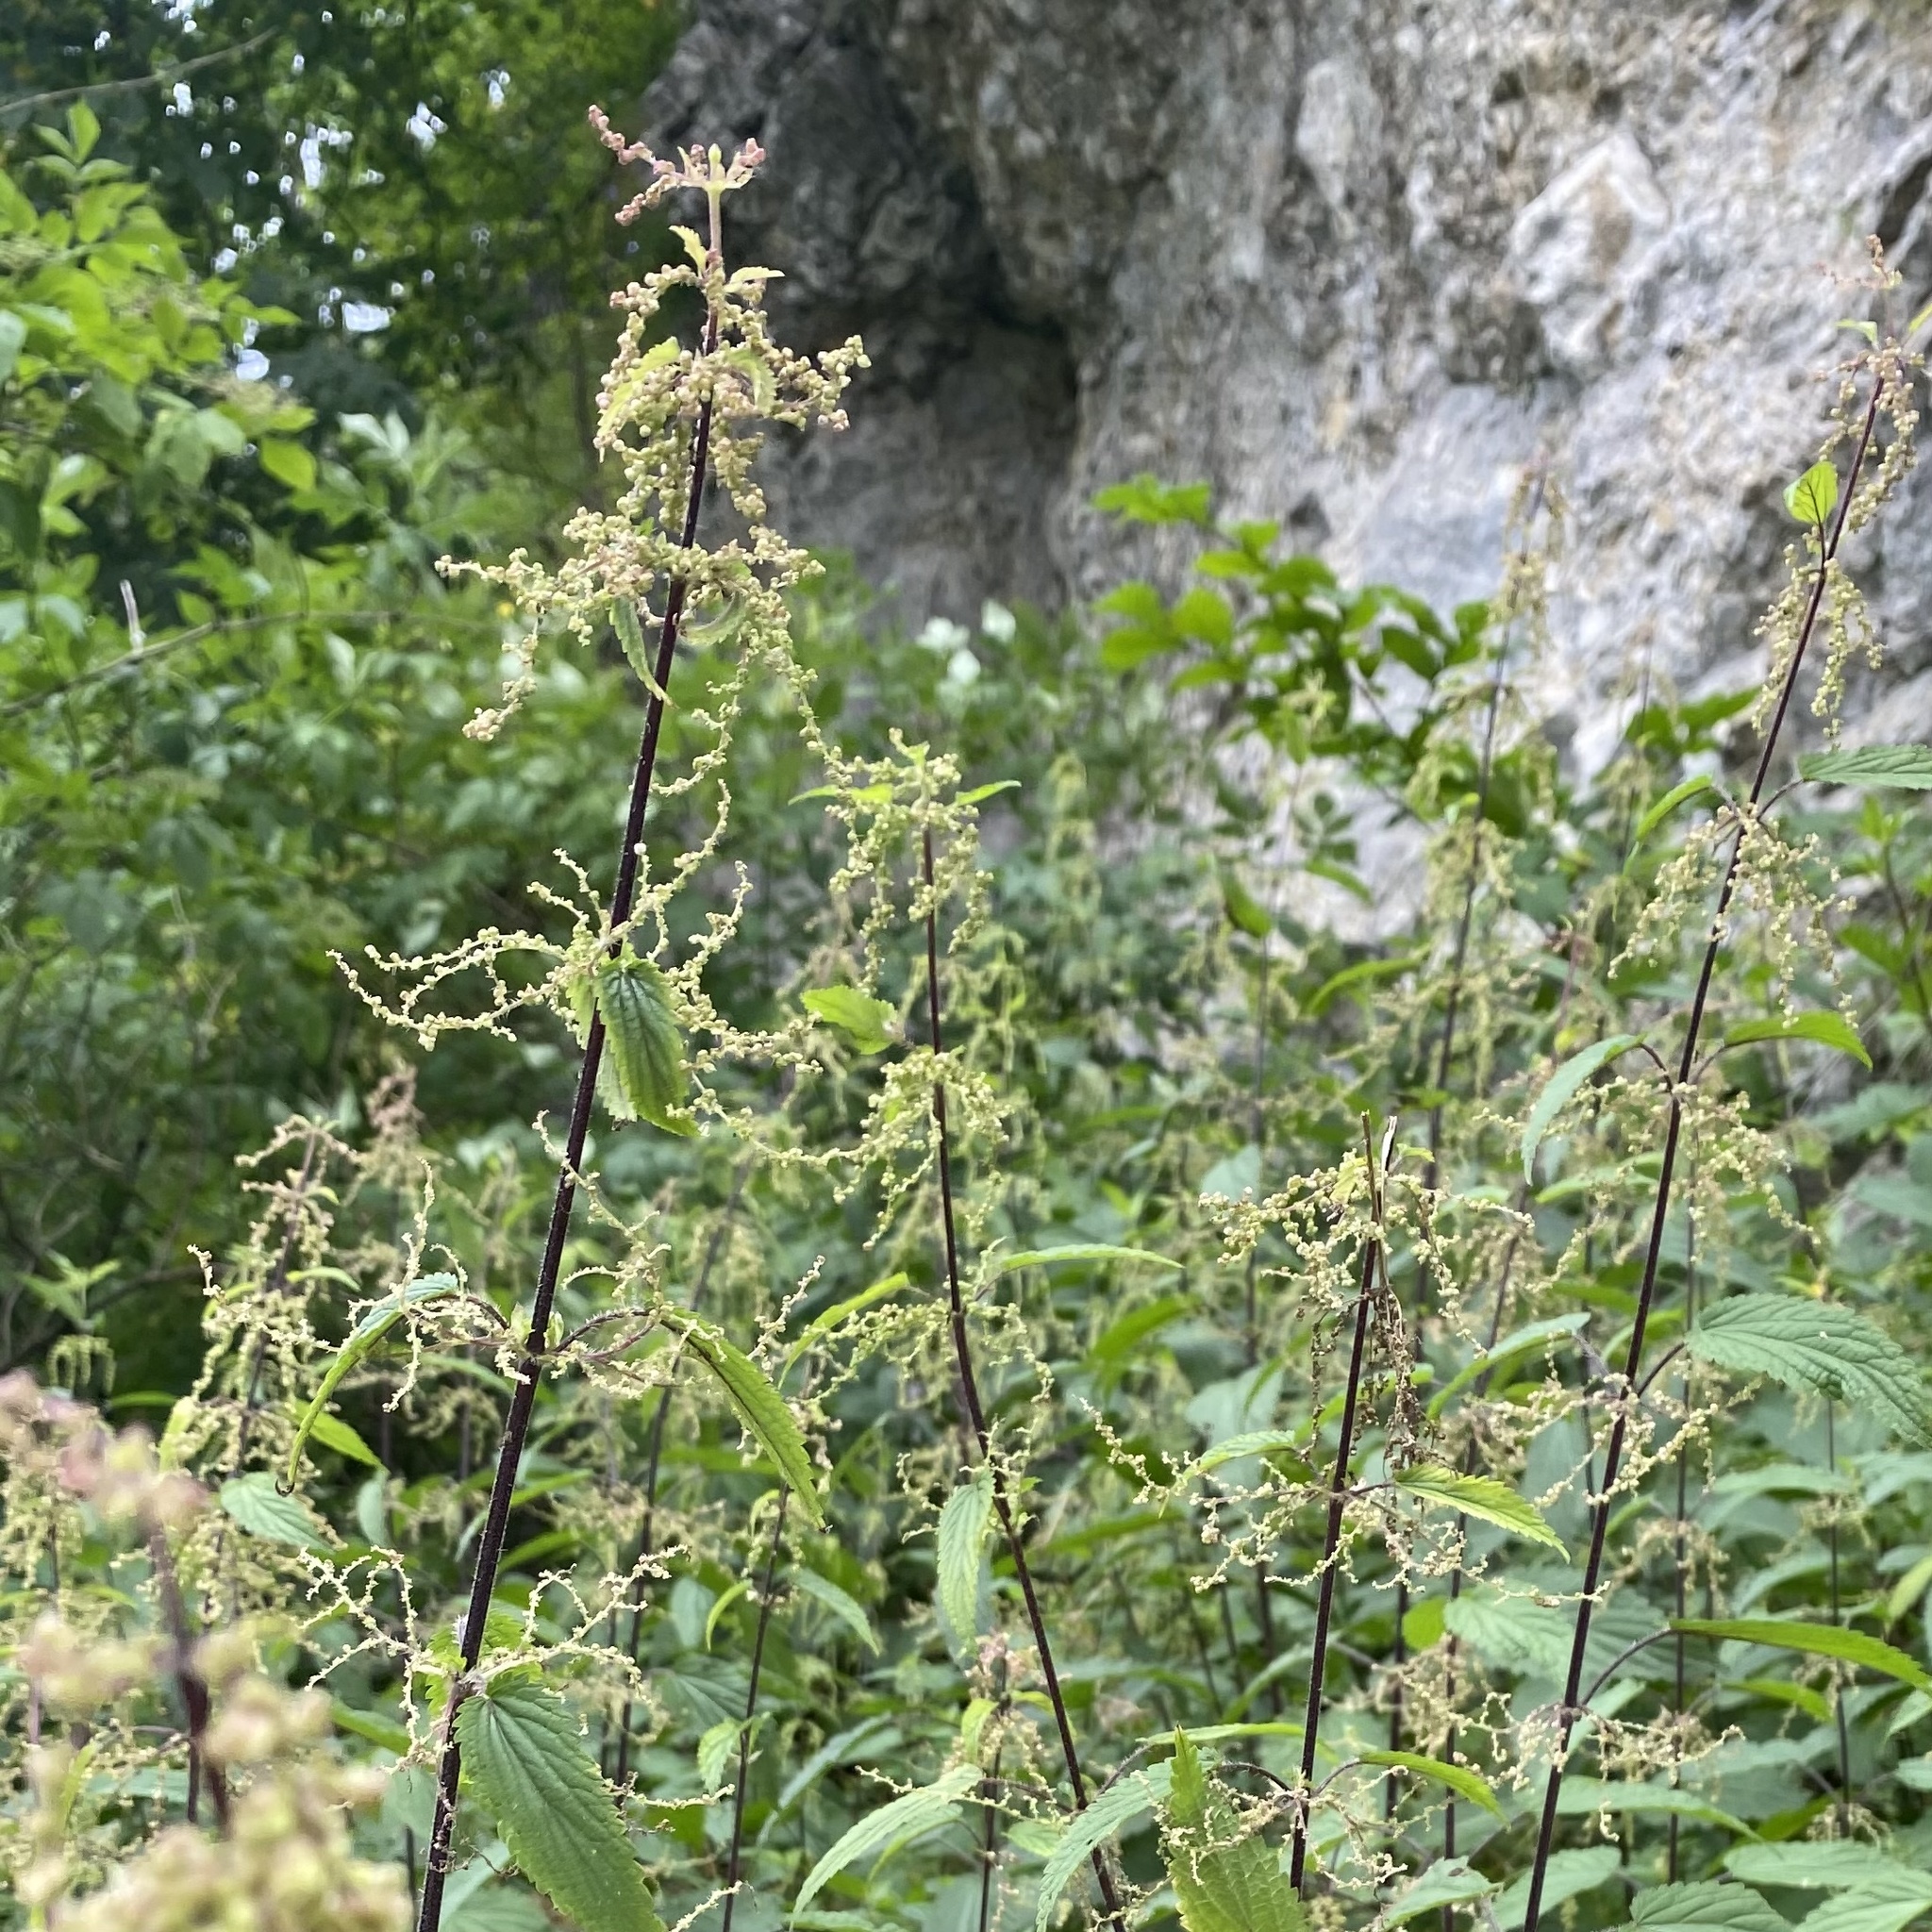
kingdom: Plantae
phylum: Tracheophyta
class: Magnoliopsida
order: Rosales
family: Urticaceae
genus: Urtica
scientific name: Urtica dioica
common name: Common nettle
